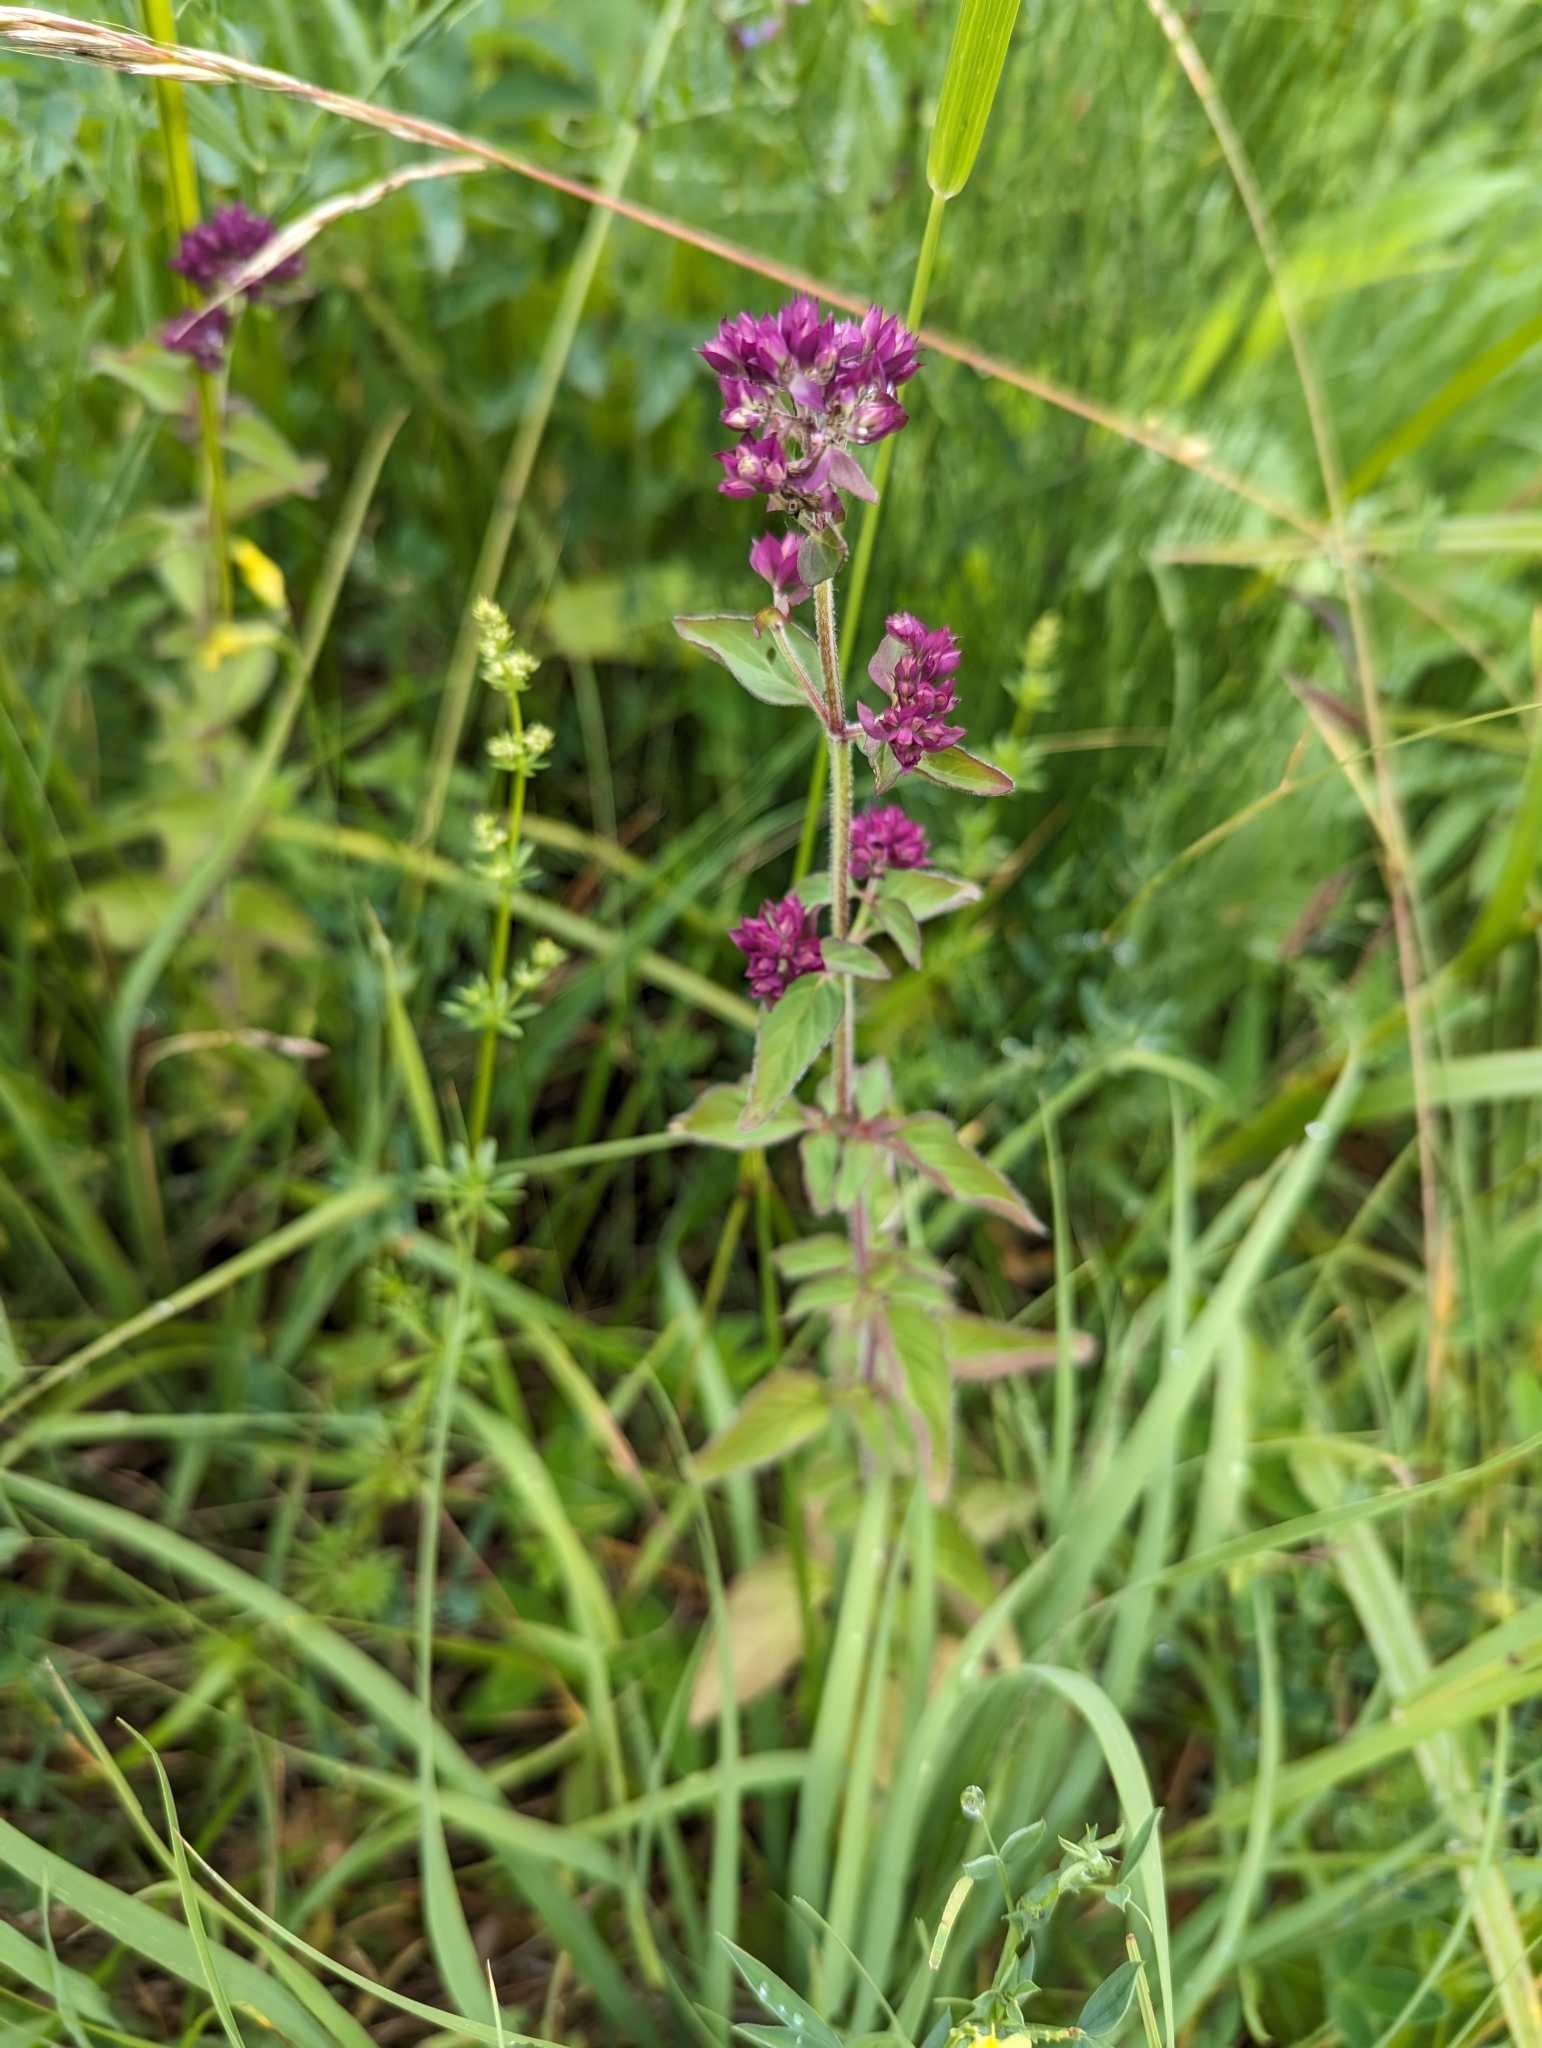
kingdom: Plantae
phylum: Tracheophyta
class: Magnoliopsida
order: Lamiales
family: Lamiaceae
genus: Origanum
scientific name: Origanum vulgare
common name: Wild marjoram
